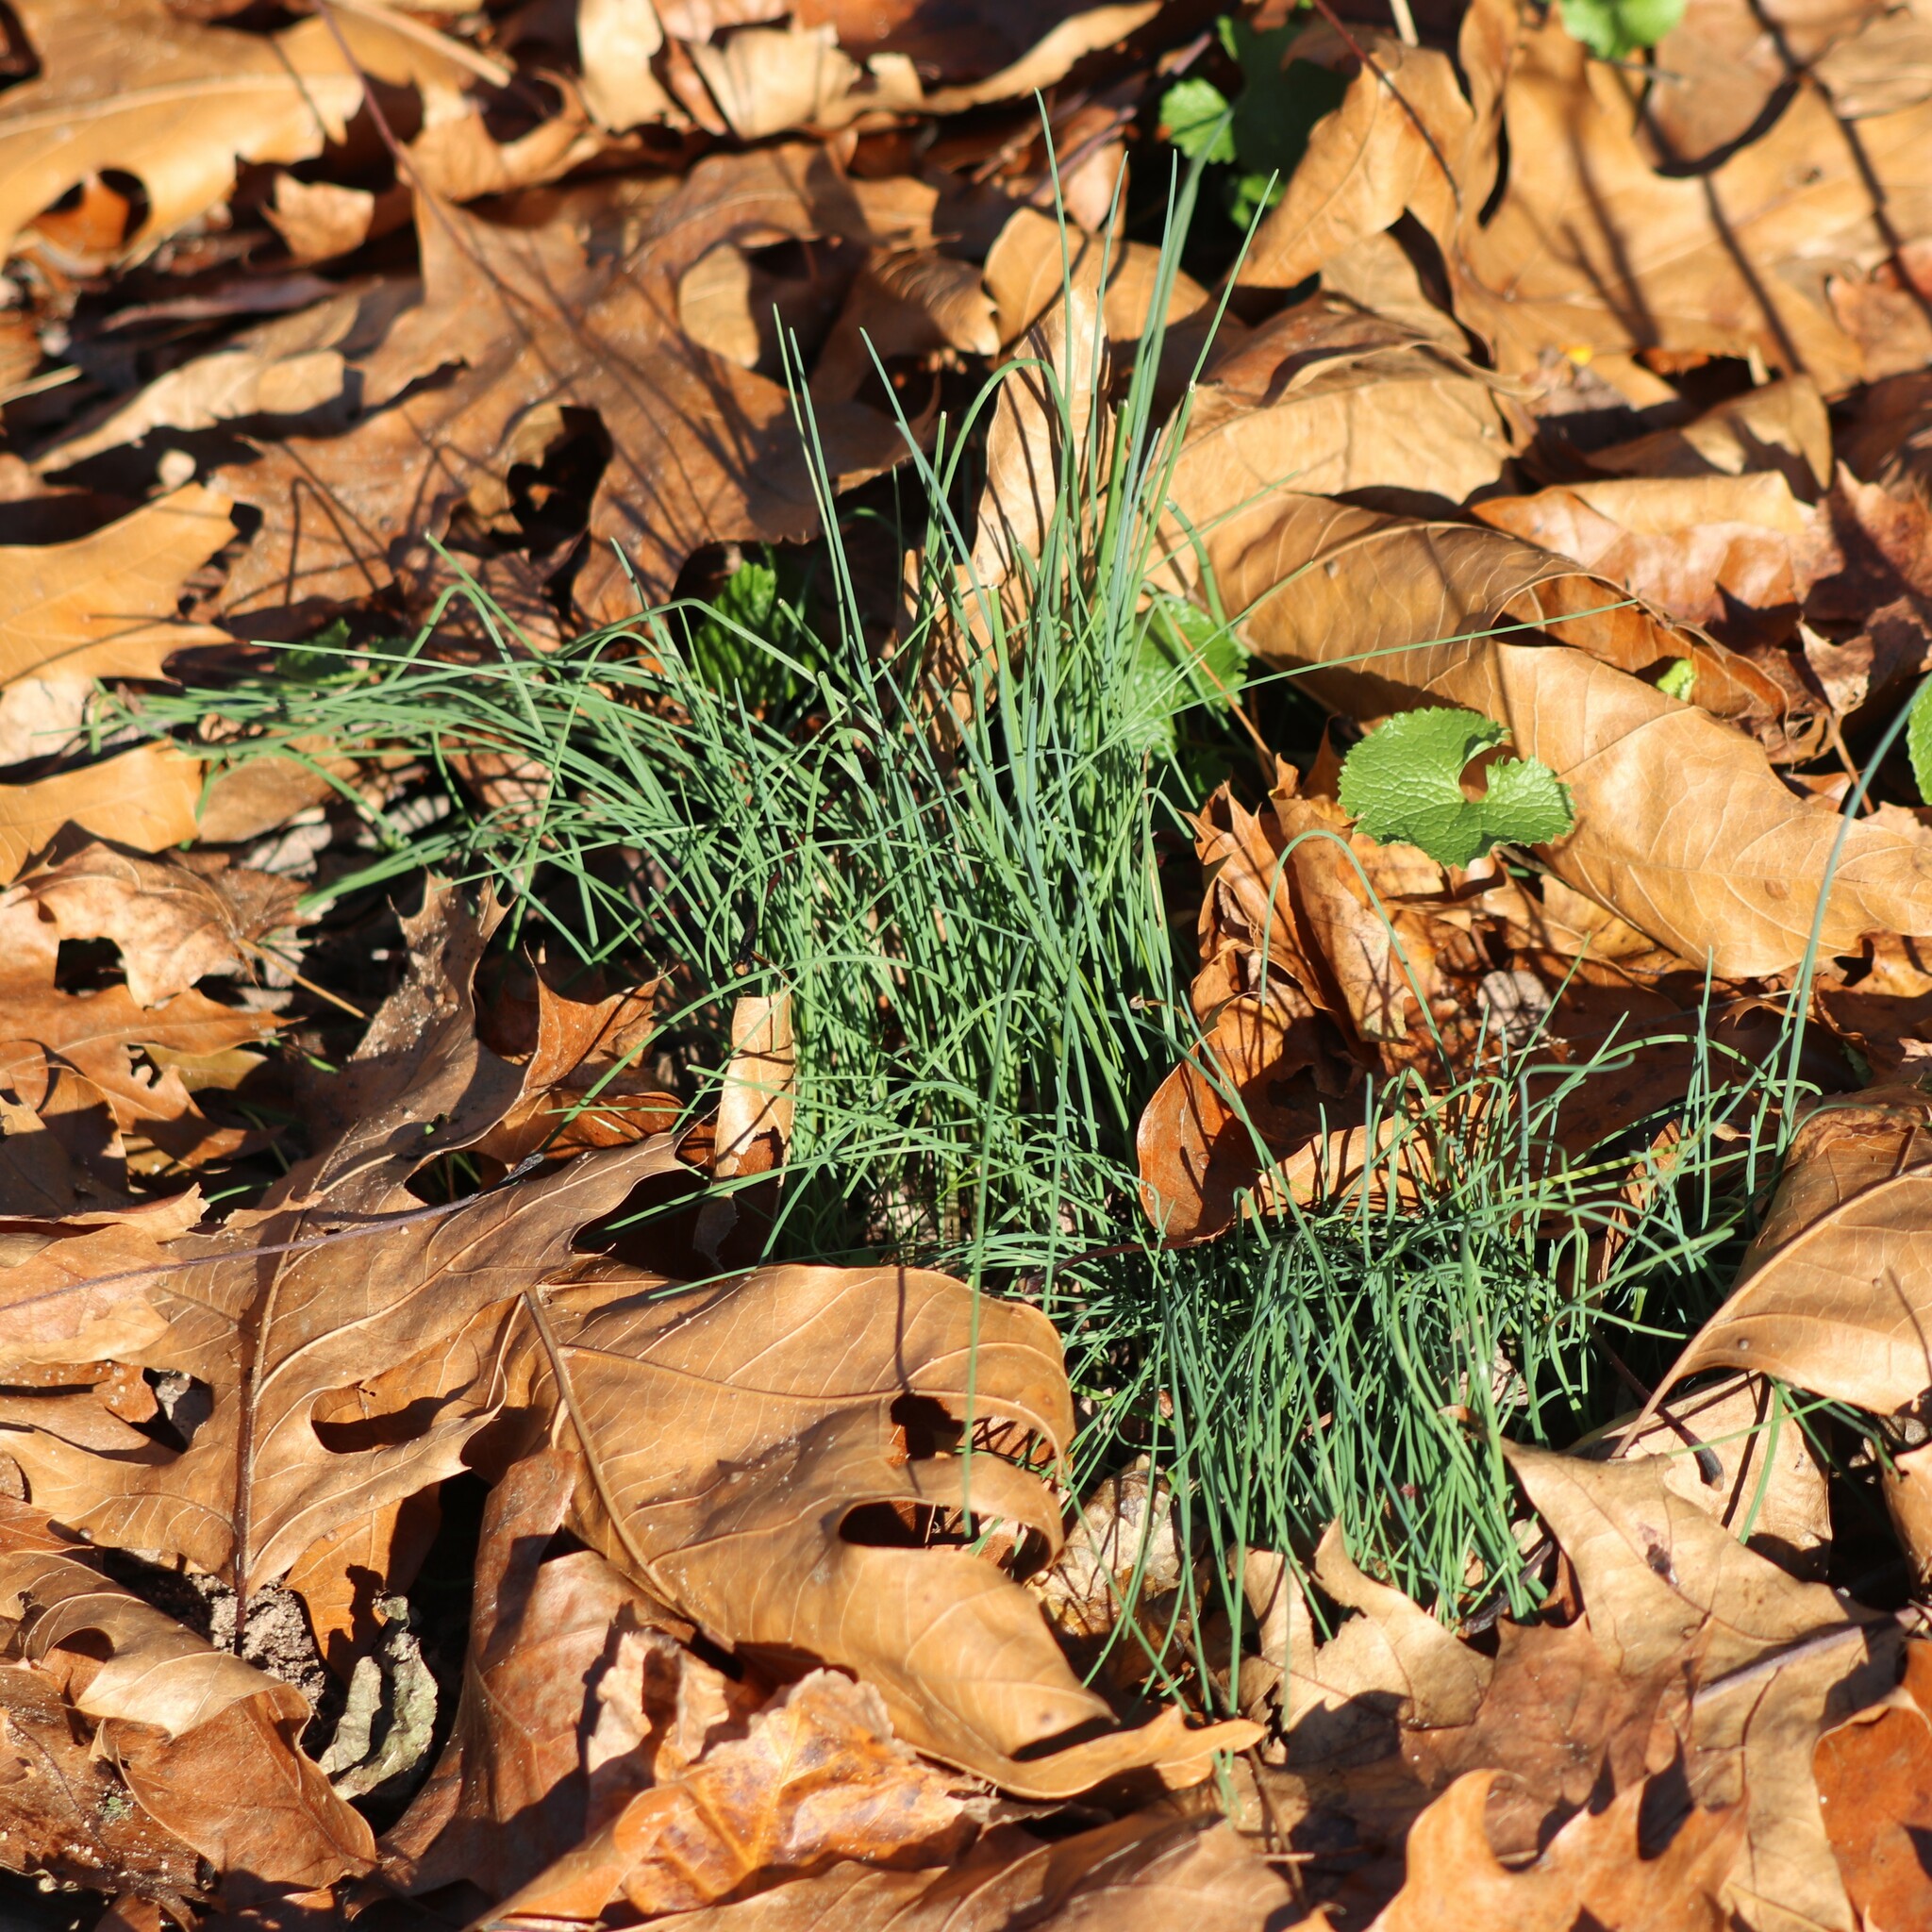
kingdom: Plantae
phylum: Tracheophyta
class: Liliopsida
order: Asparagales
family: Amaryllidaceae
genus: Allium
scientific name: Allium vineale
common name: Crow garlic
